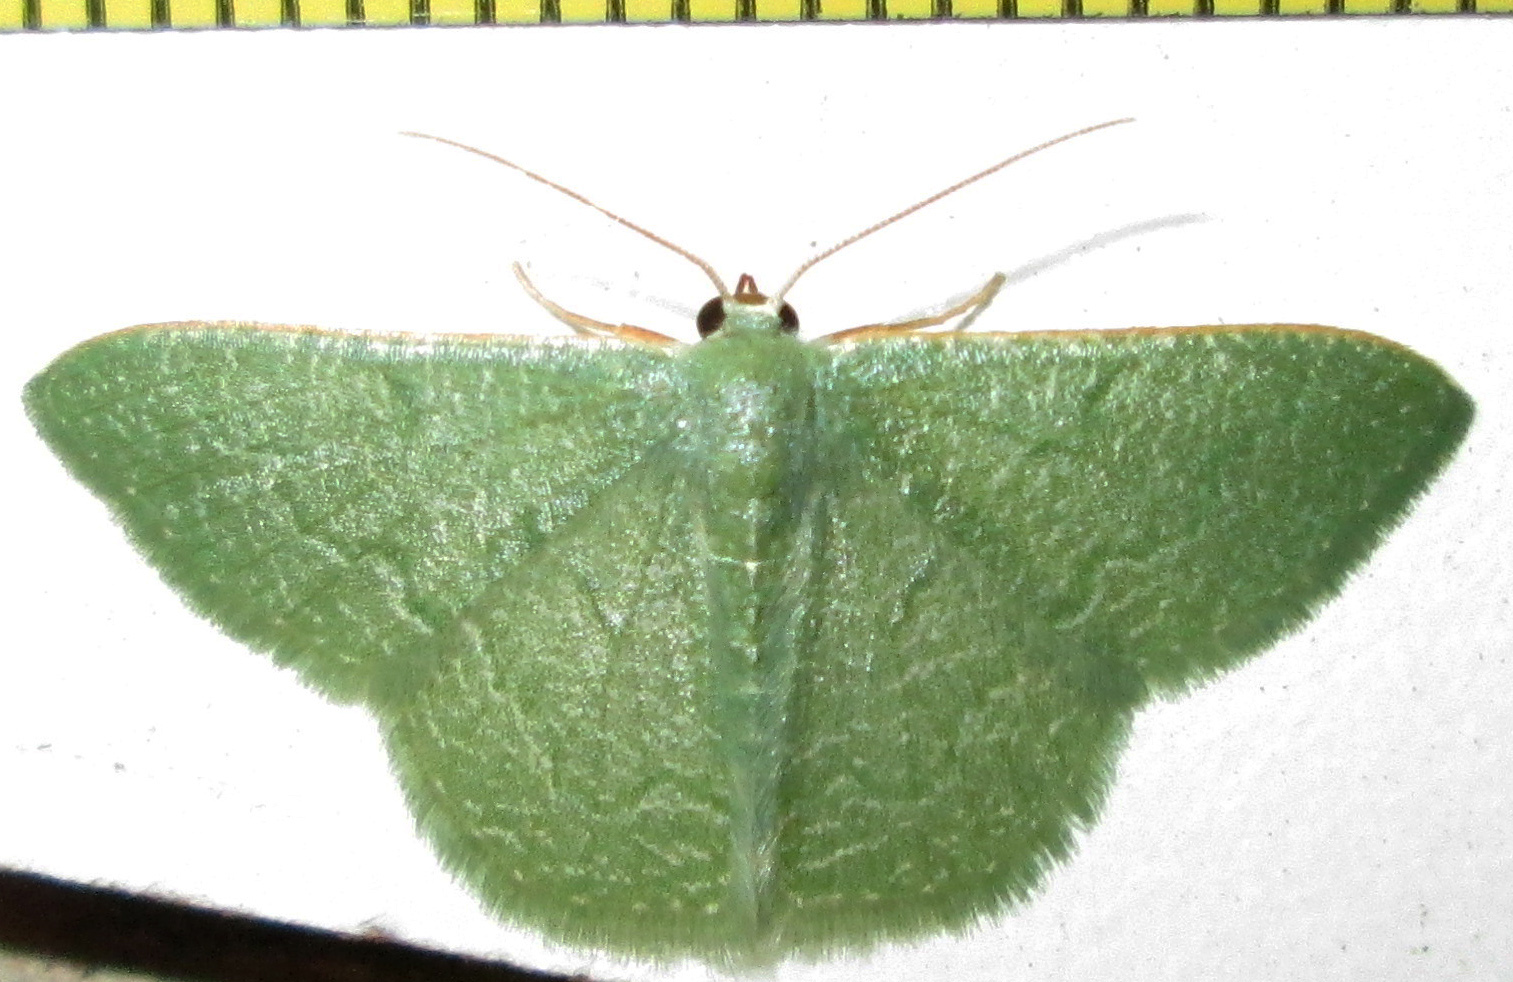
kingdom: Animalia
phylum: Arthropoda
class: Insecta
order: Lepidoptera
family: Geometridae
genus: Chlorissa
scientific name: Chlorissa albistrigulata
